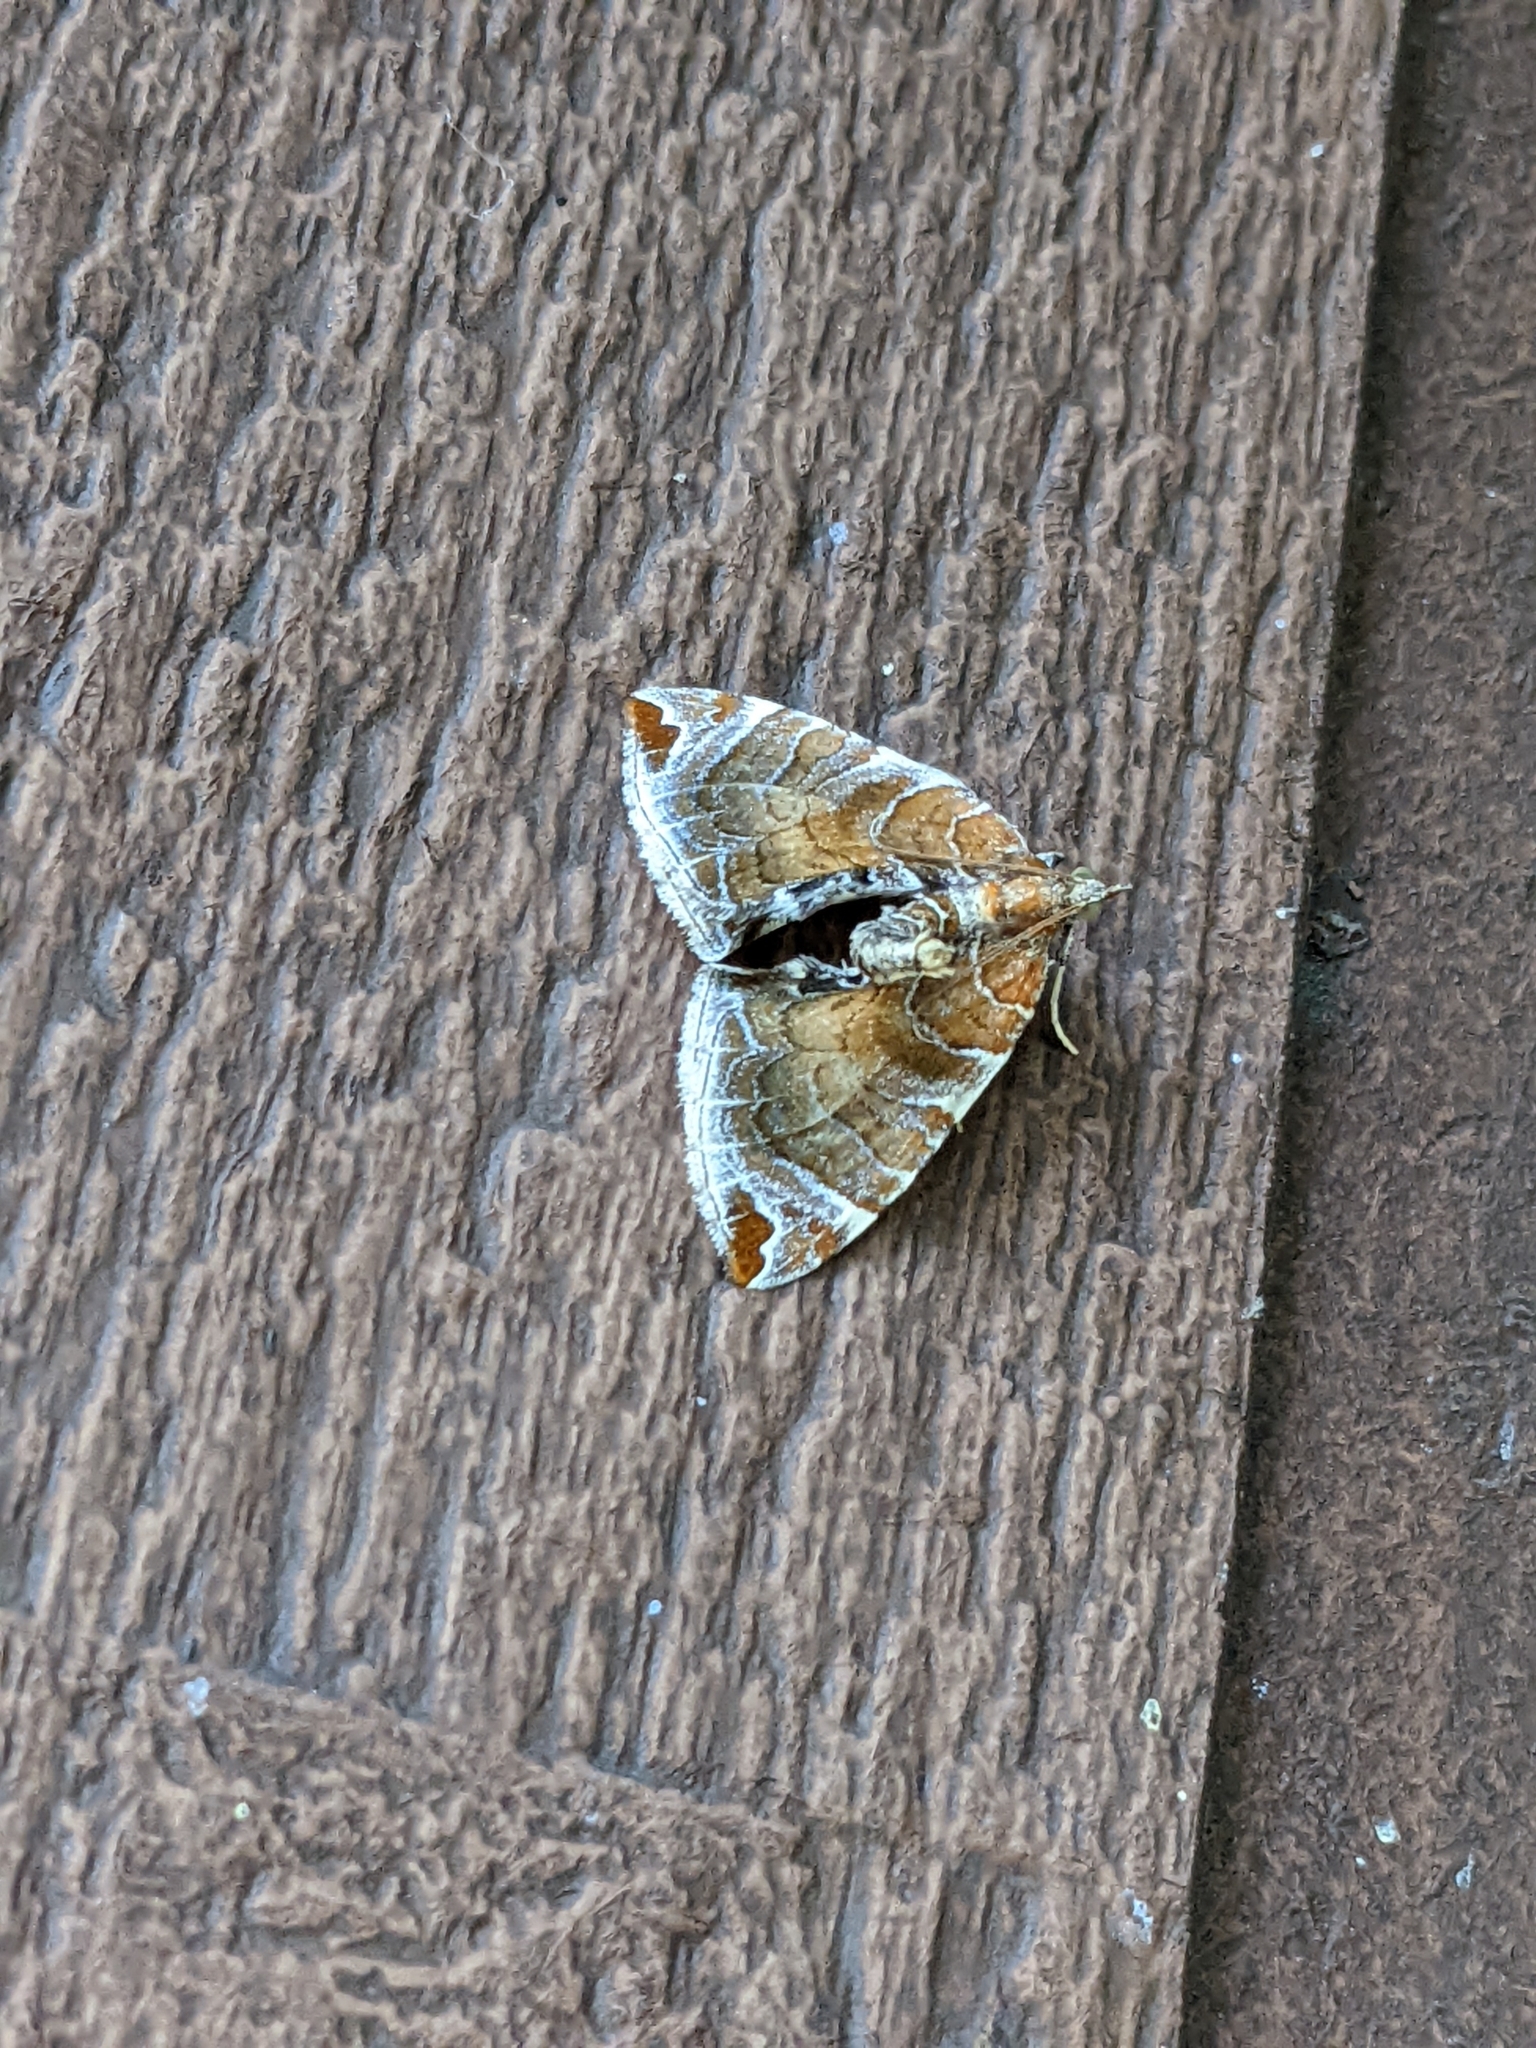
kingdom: Animalia
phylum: Arthropoda
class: Insecta
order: Lepidoptera
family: Geometridae
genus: Eulithis
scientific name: Eulithis molliculata
